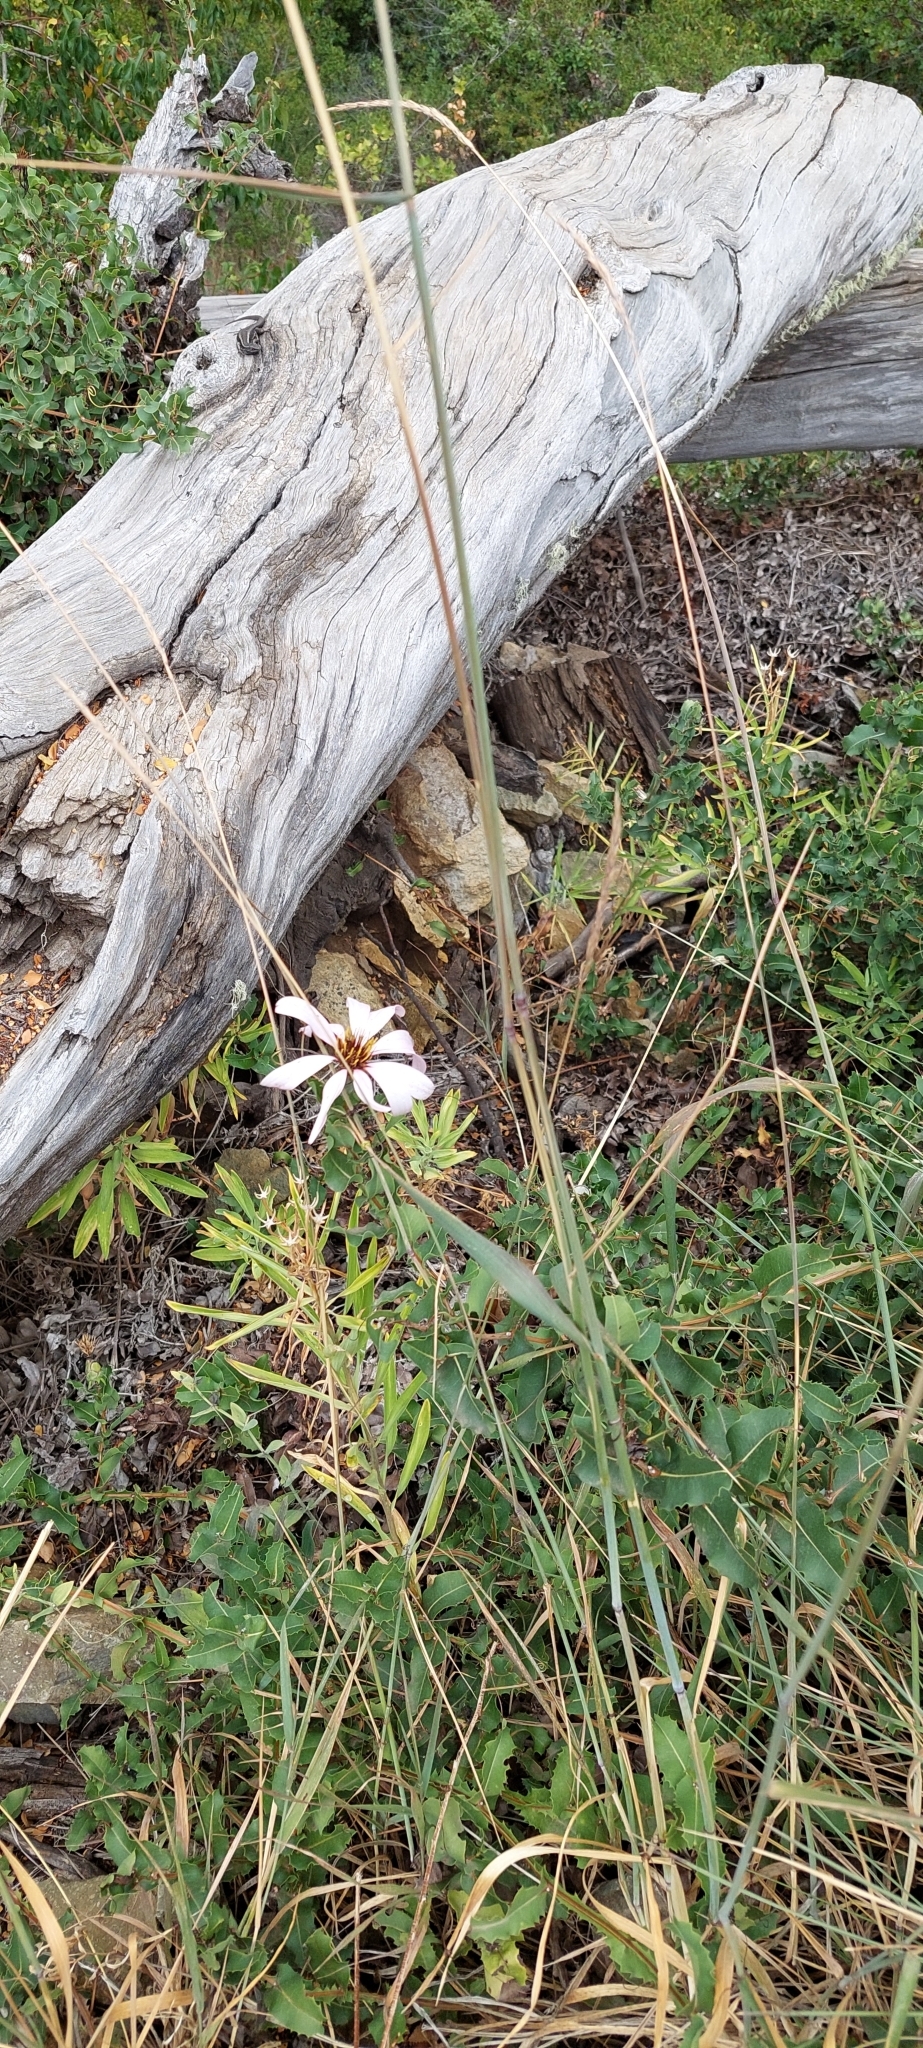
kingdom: Plantae
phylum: Tracheophyta
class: Magnoliopsida
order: Asterales
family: Asteraceae
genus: Mutisia
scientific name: Mutisia spinosa
